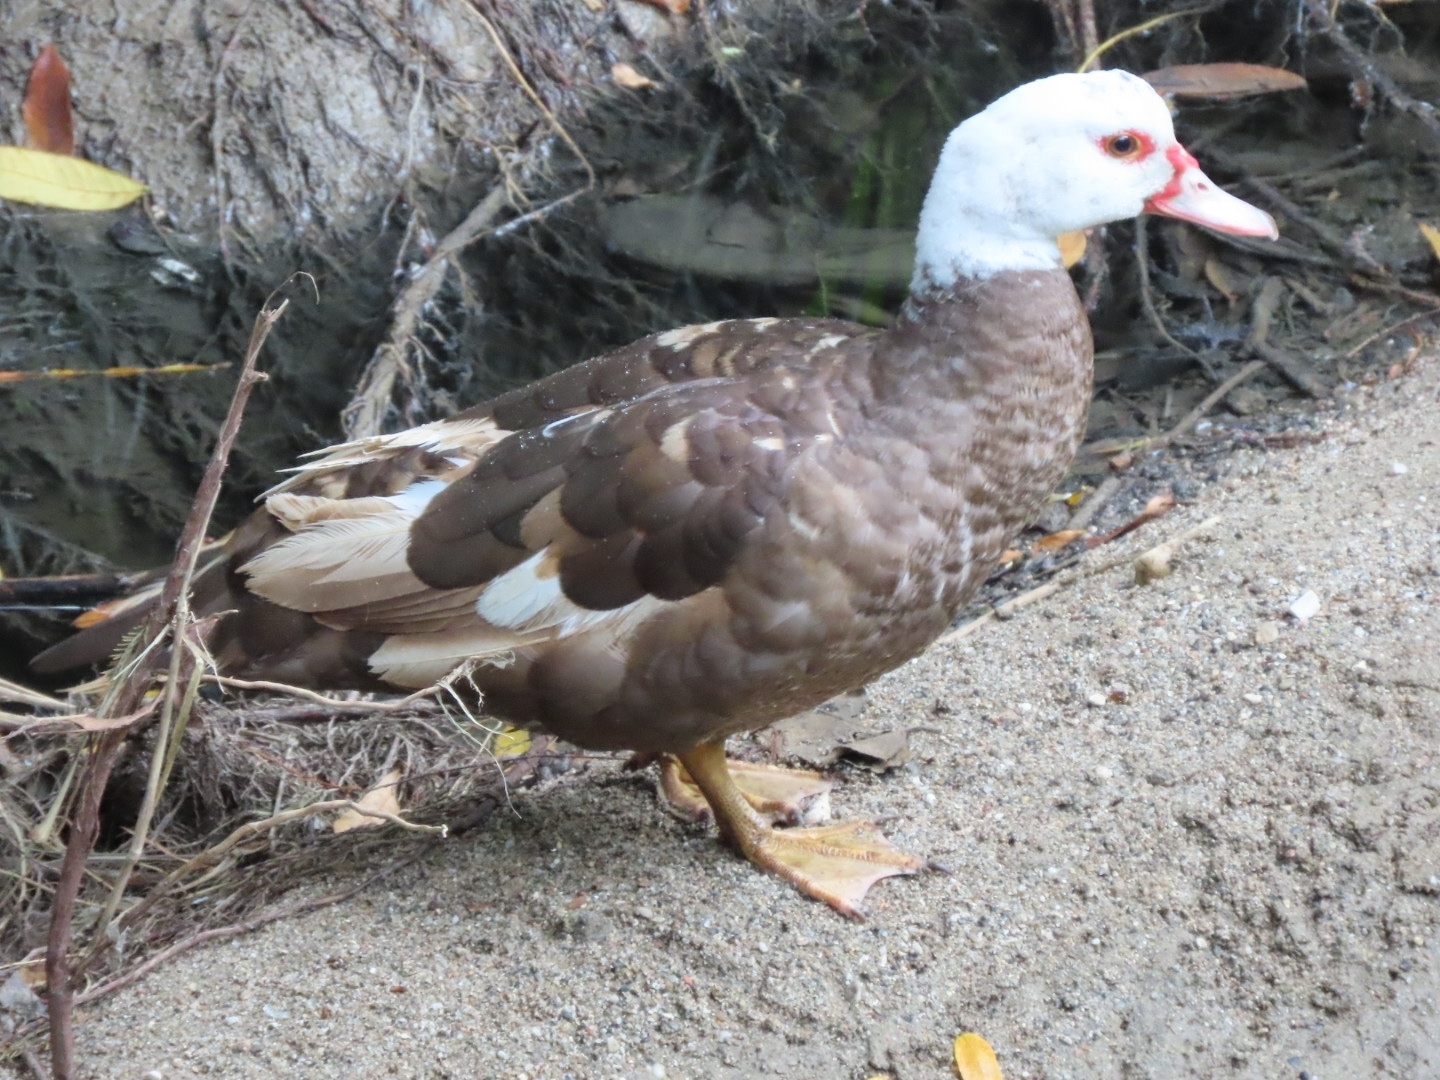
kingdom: Animalia
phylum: Chordata
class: Aves
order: Anseriformes
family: Anatidae
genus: Cairina
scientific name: Cairina moschata
